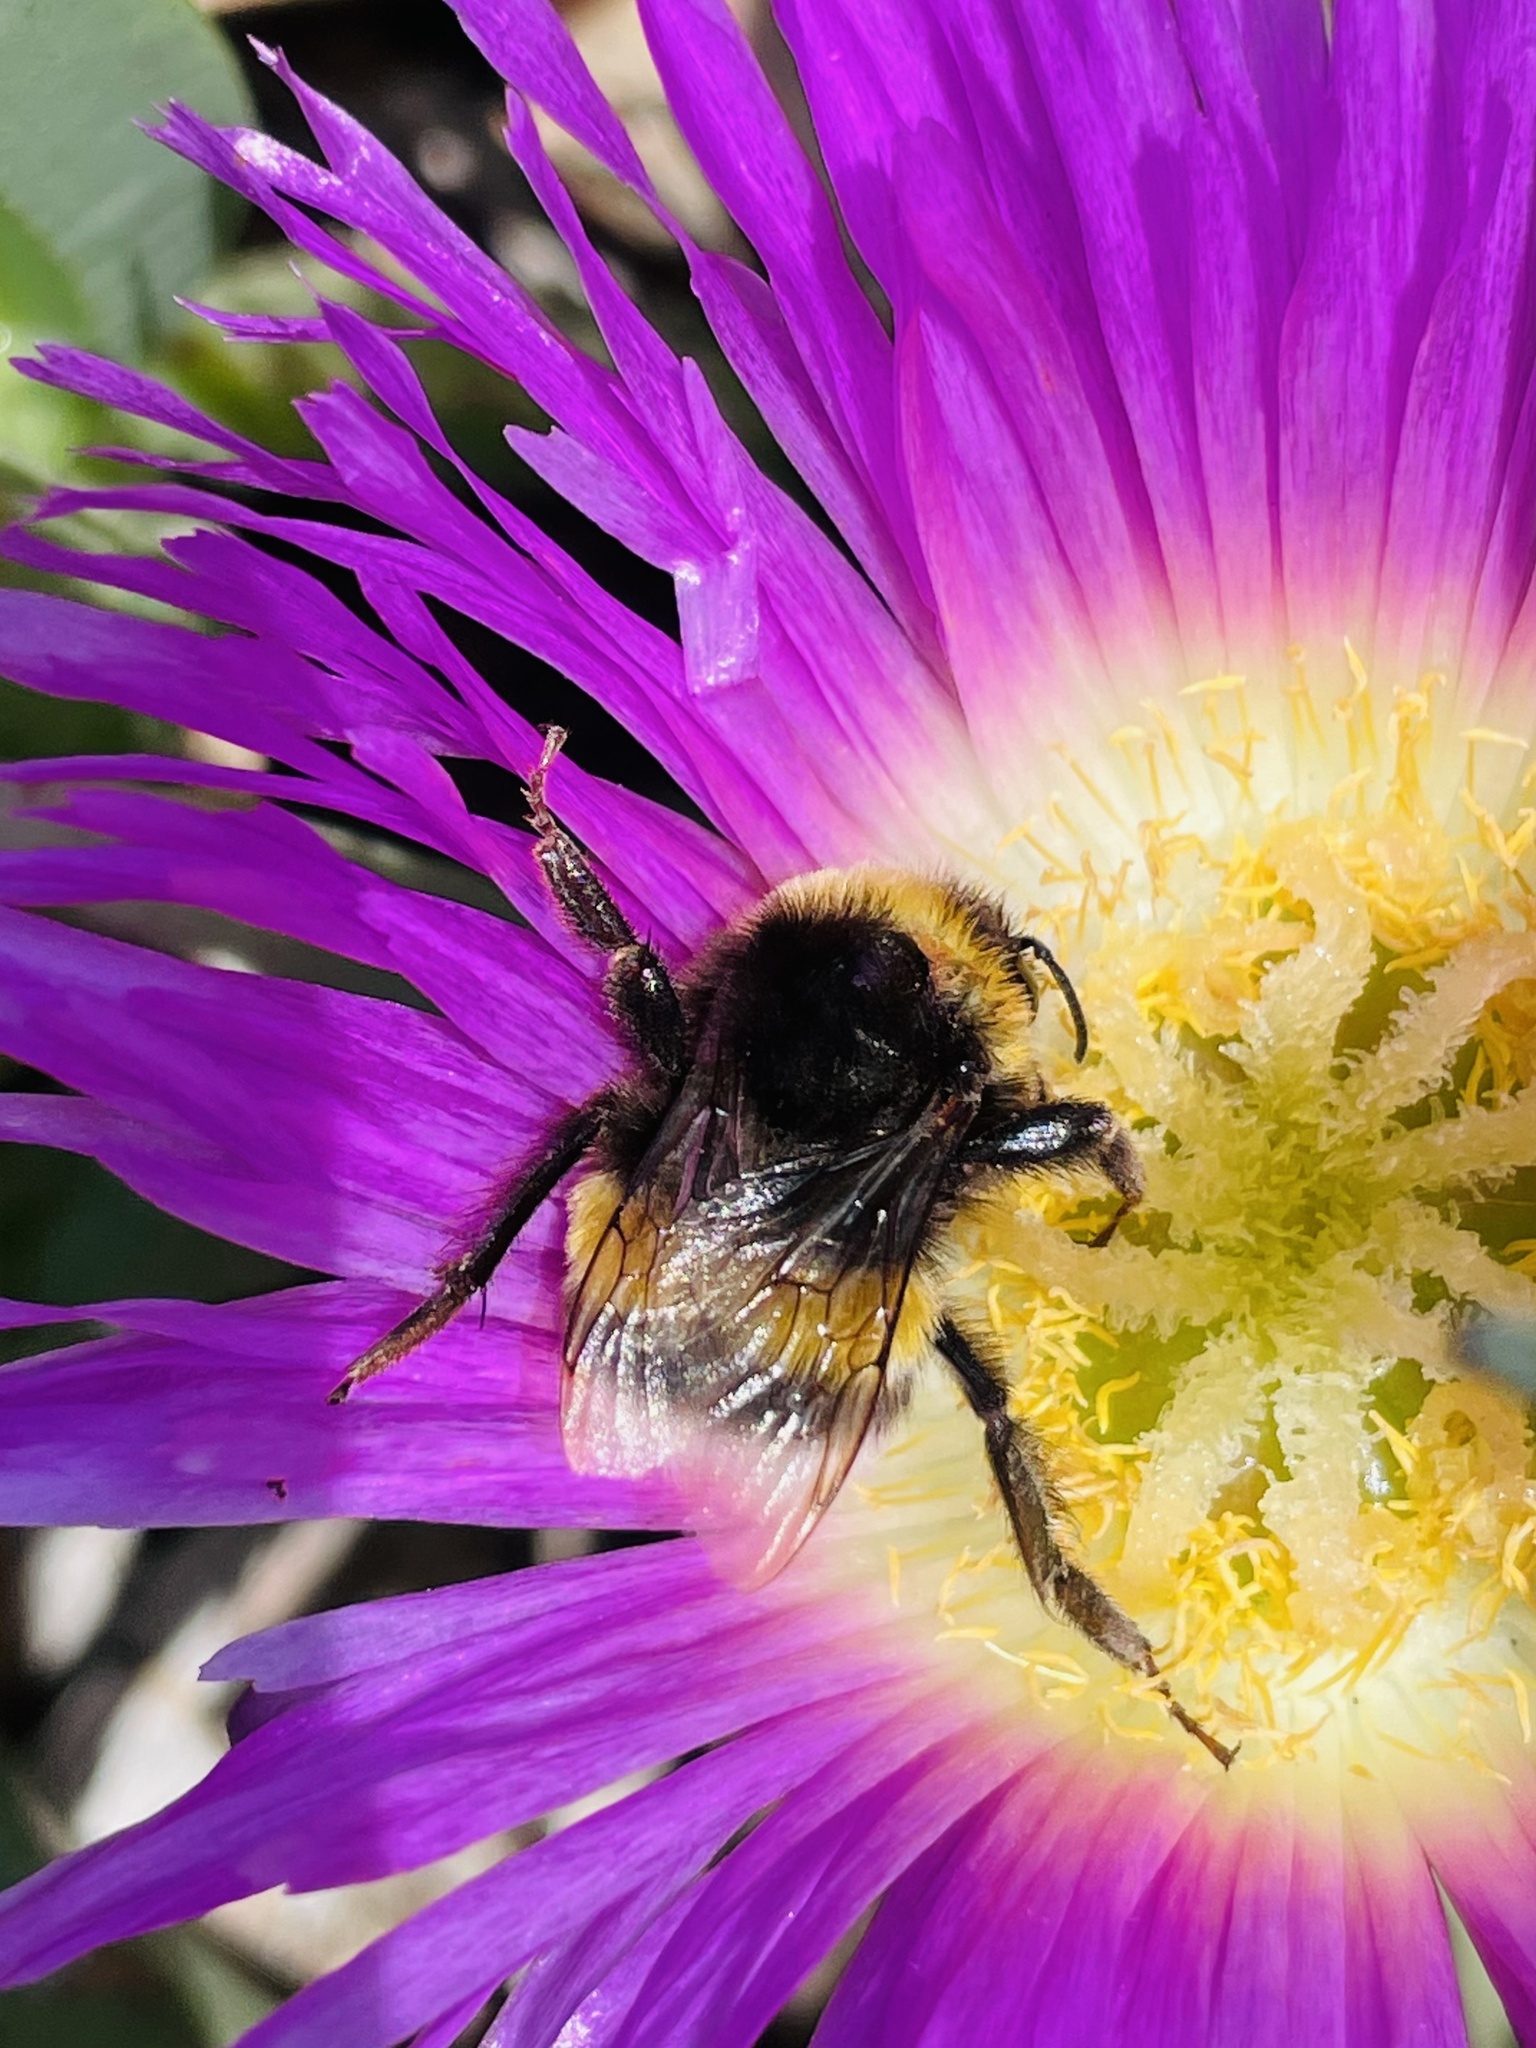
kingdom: Animalia
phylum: Arthropoda
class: Insecta
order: Hymenoptera
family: Apidae
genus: Bombus
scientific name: Bombus terrestris
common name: Buff-tailed bumblebee
